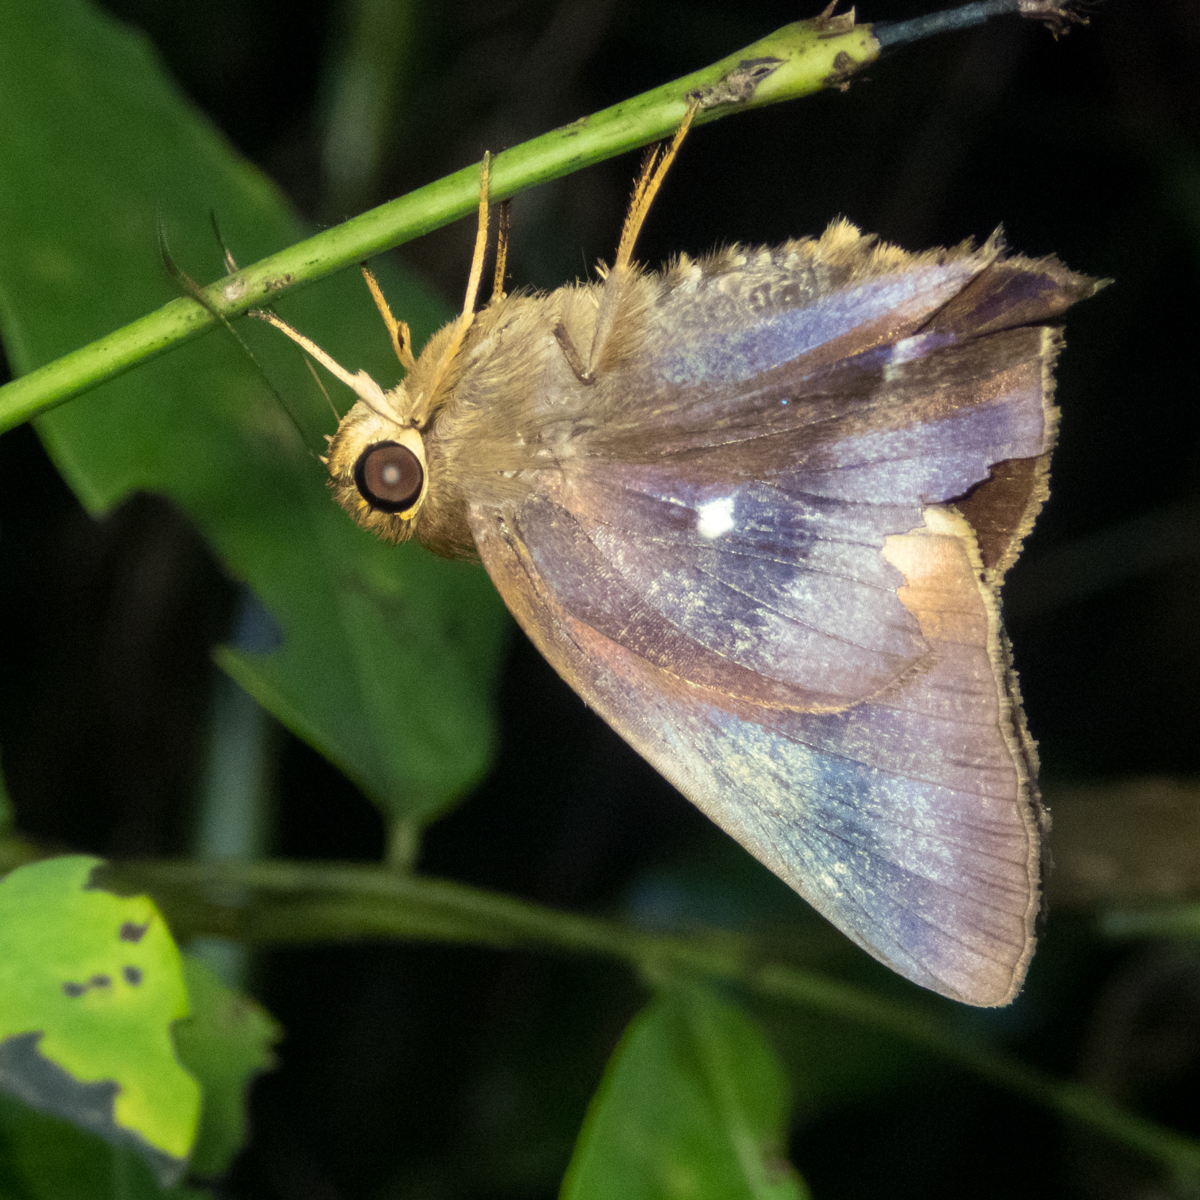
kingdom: Animalia
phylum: Arthropoda
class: Insecta
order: Lepidoptera
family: Hesperiidae
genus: Hasora
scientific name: Hasora badra
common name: Common awl
